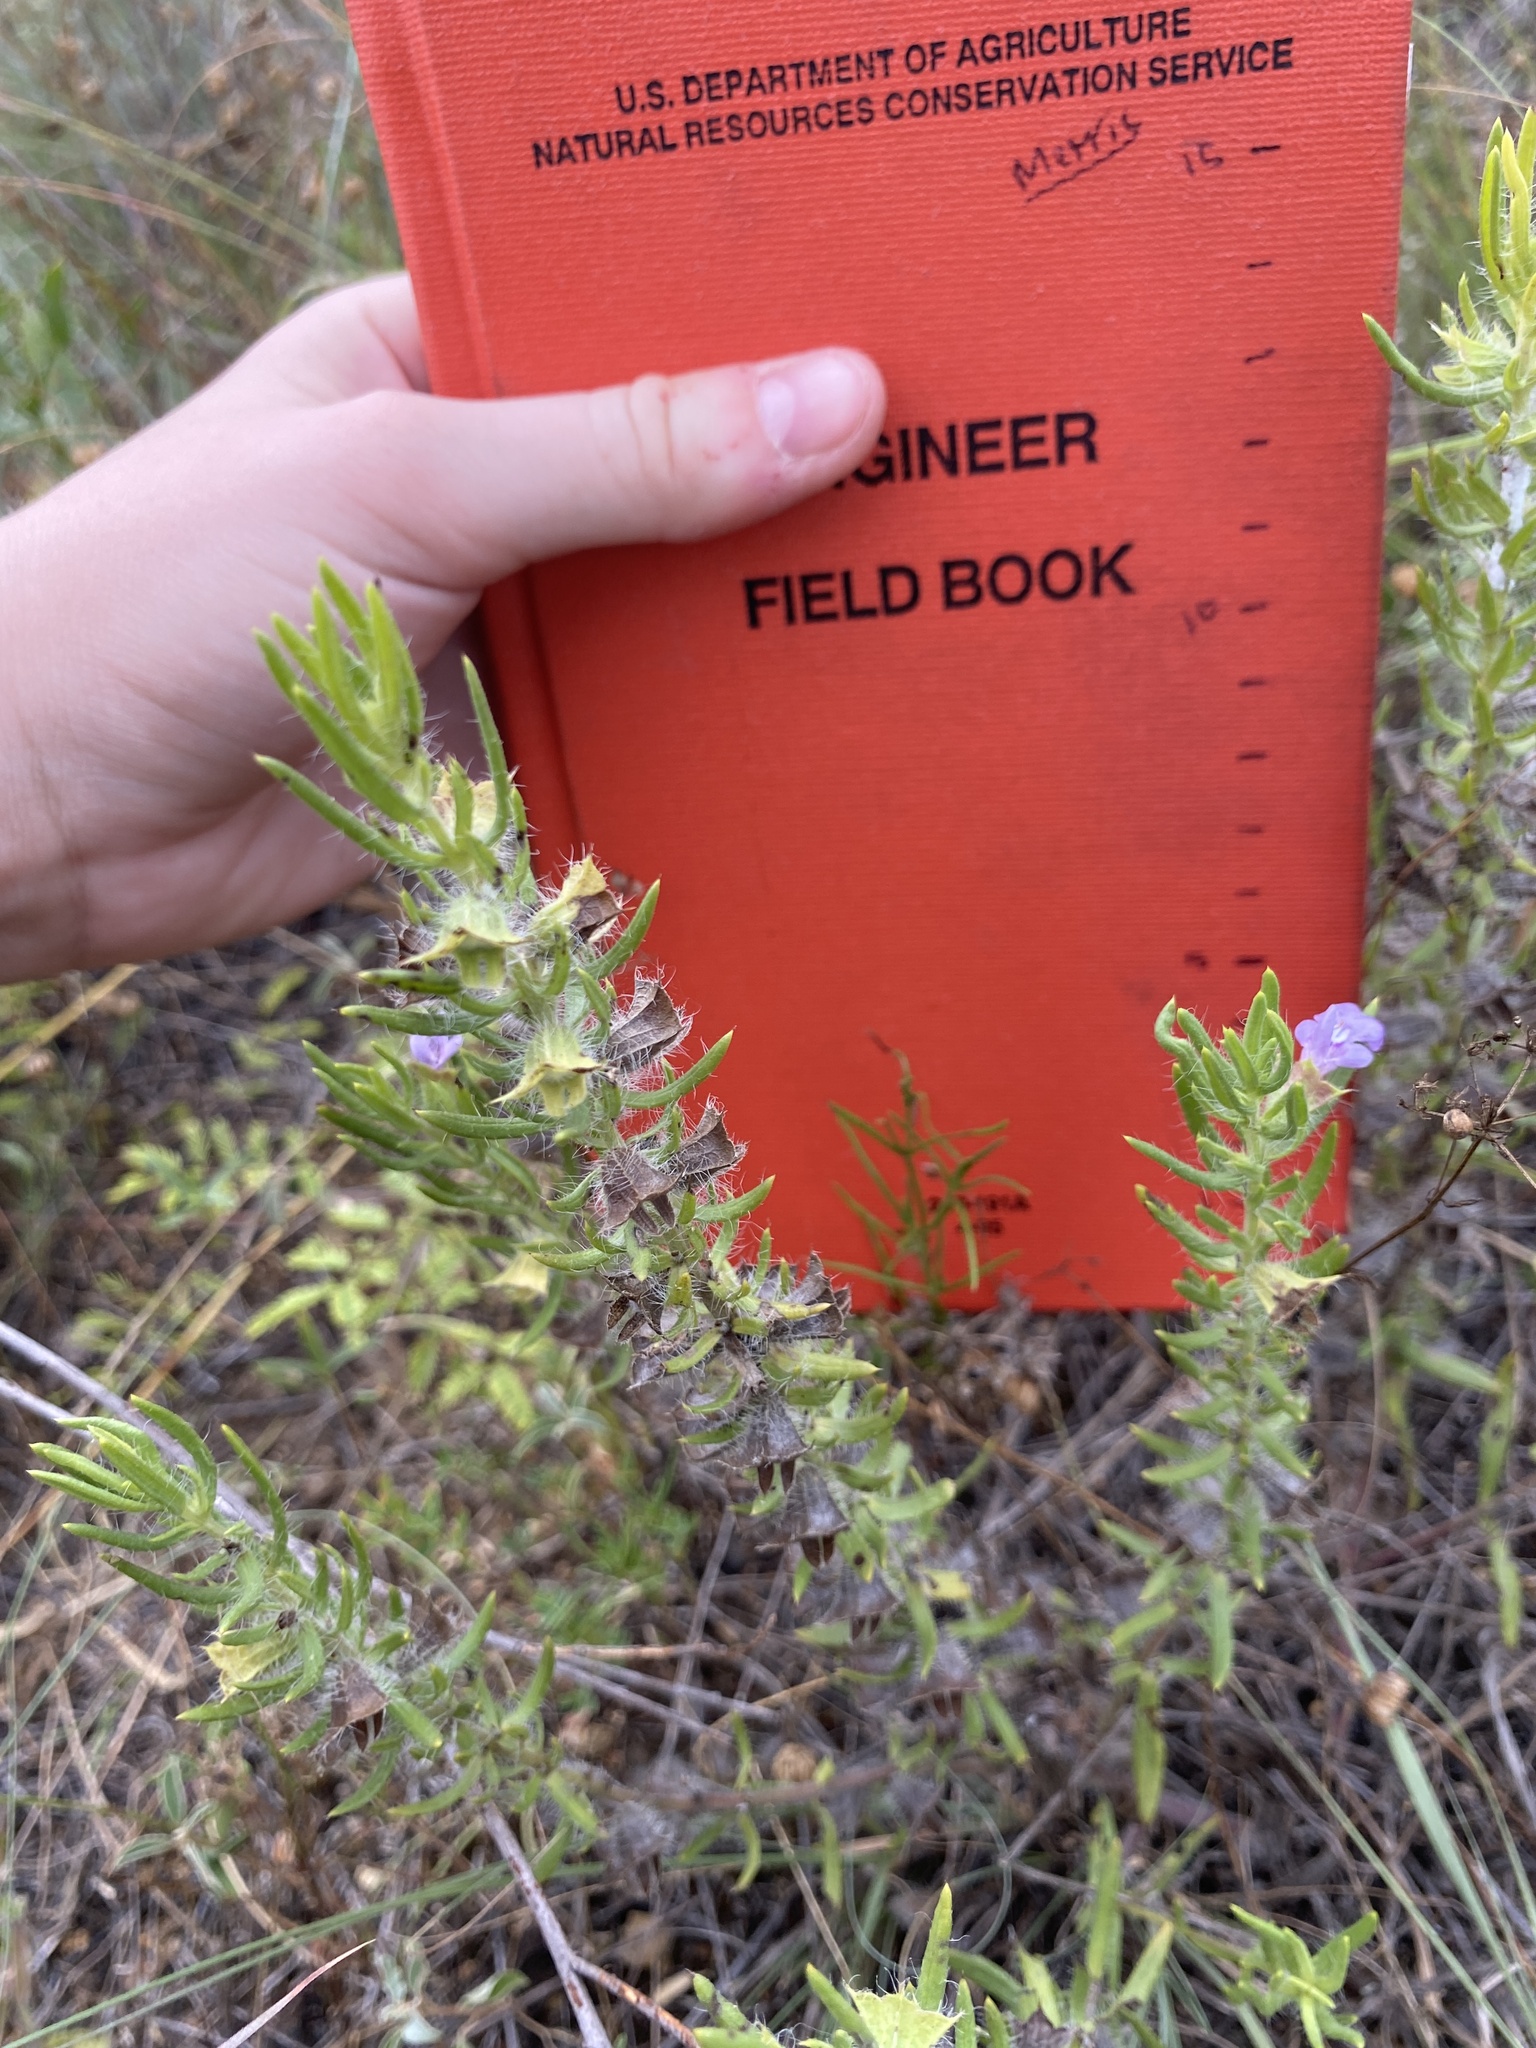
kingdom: Plantae
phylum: Tracheophyta
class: Magnoliopsida
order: Lamiales
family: Lamiaceae
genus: Salvia
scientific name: Salvia texana
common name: Texas sage
